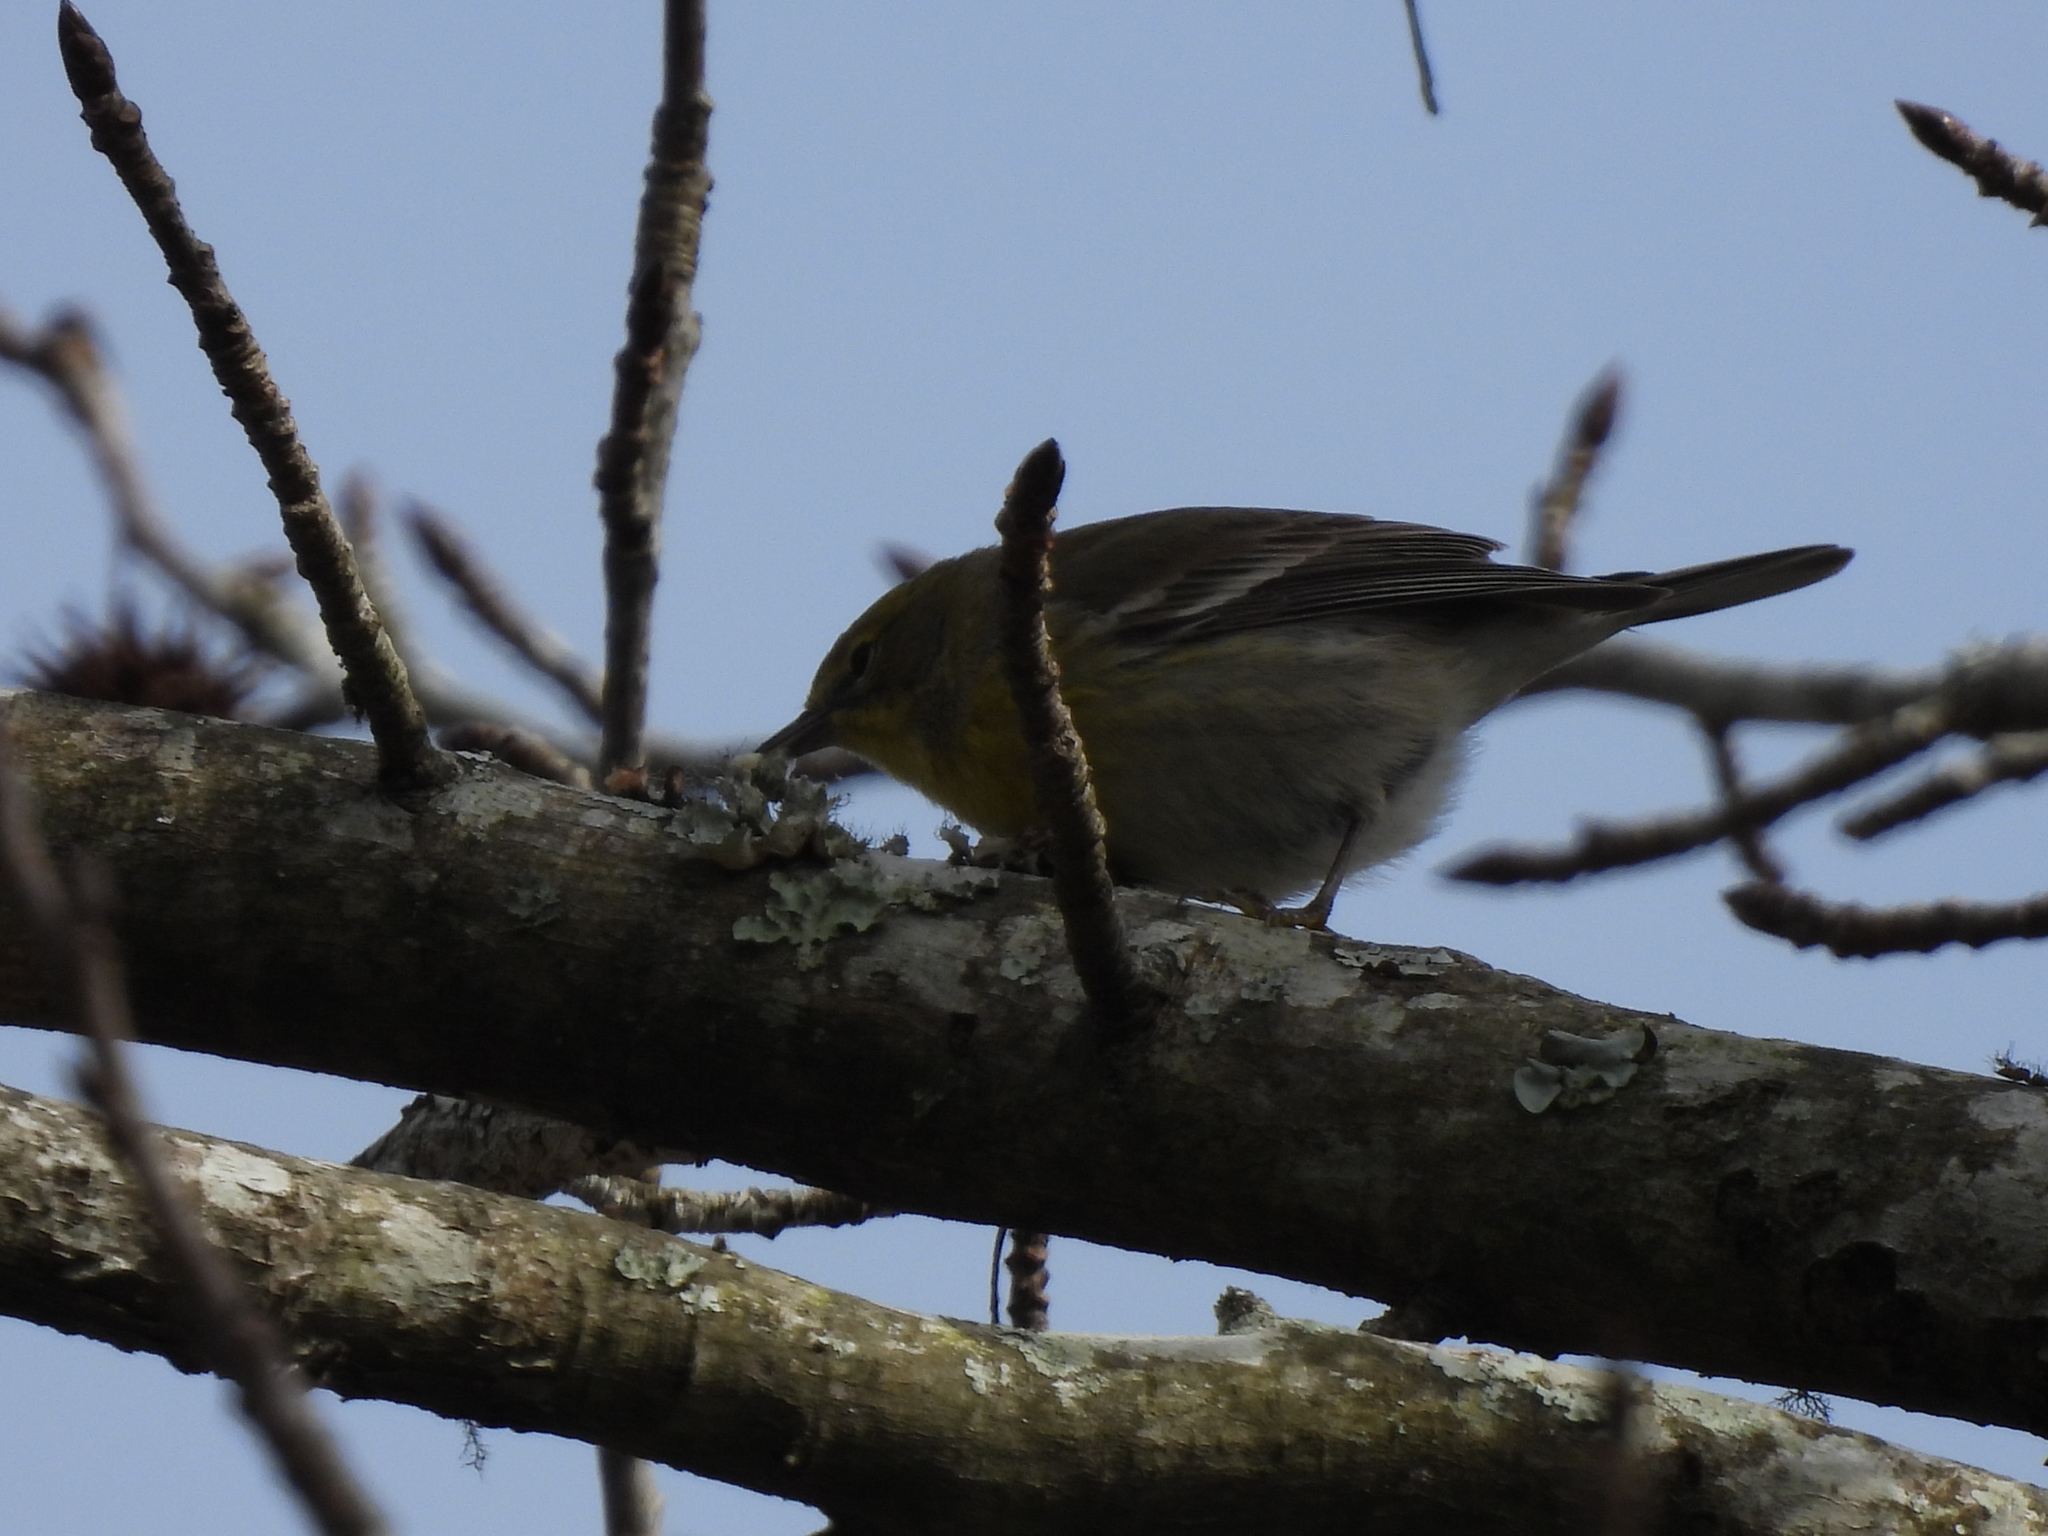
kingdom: Animalia
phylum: Chordata
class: Aves
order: Passeriformes
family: Parulidae
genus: Setophaga
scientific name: Setophaga pinus
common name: Pine warbler
